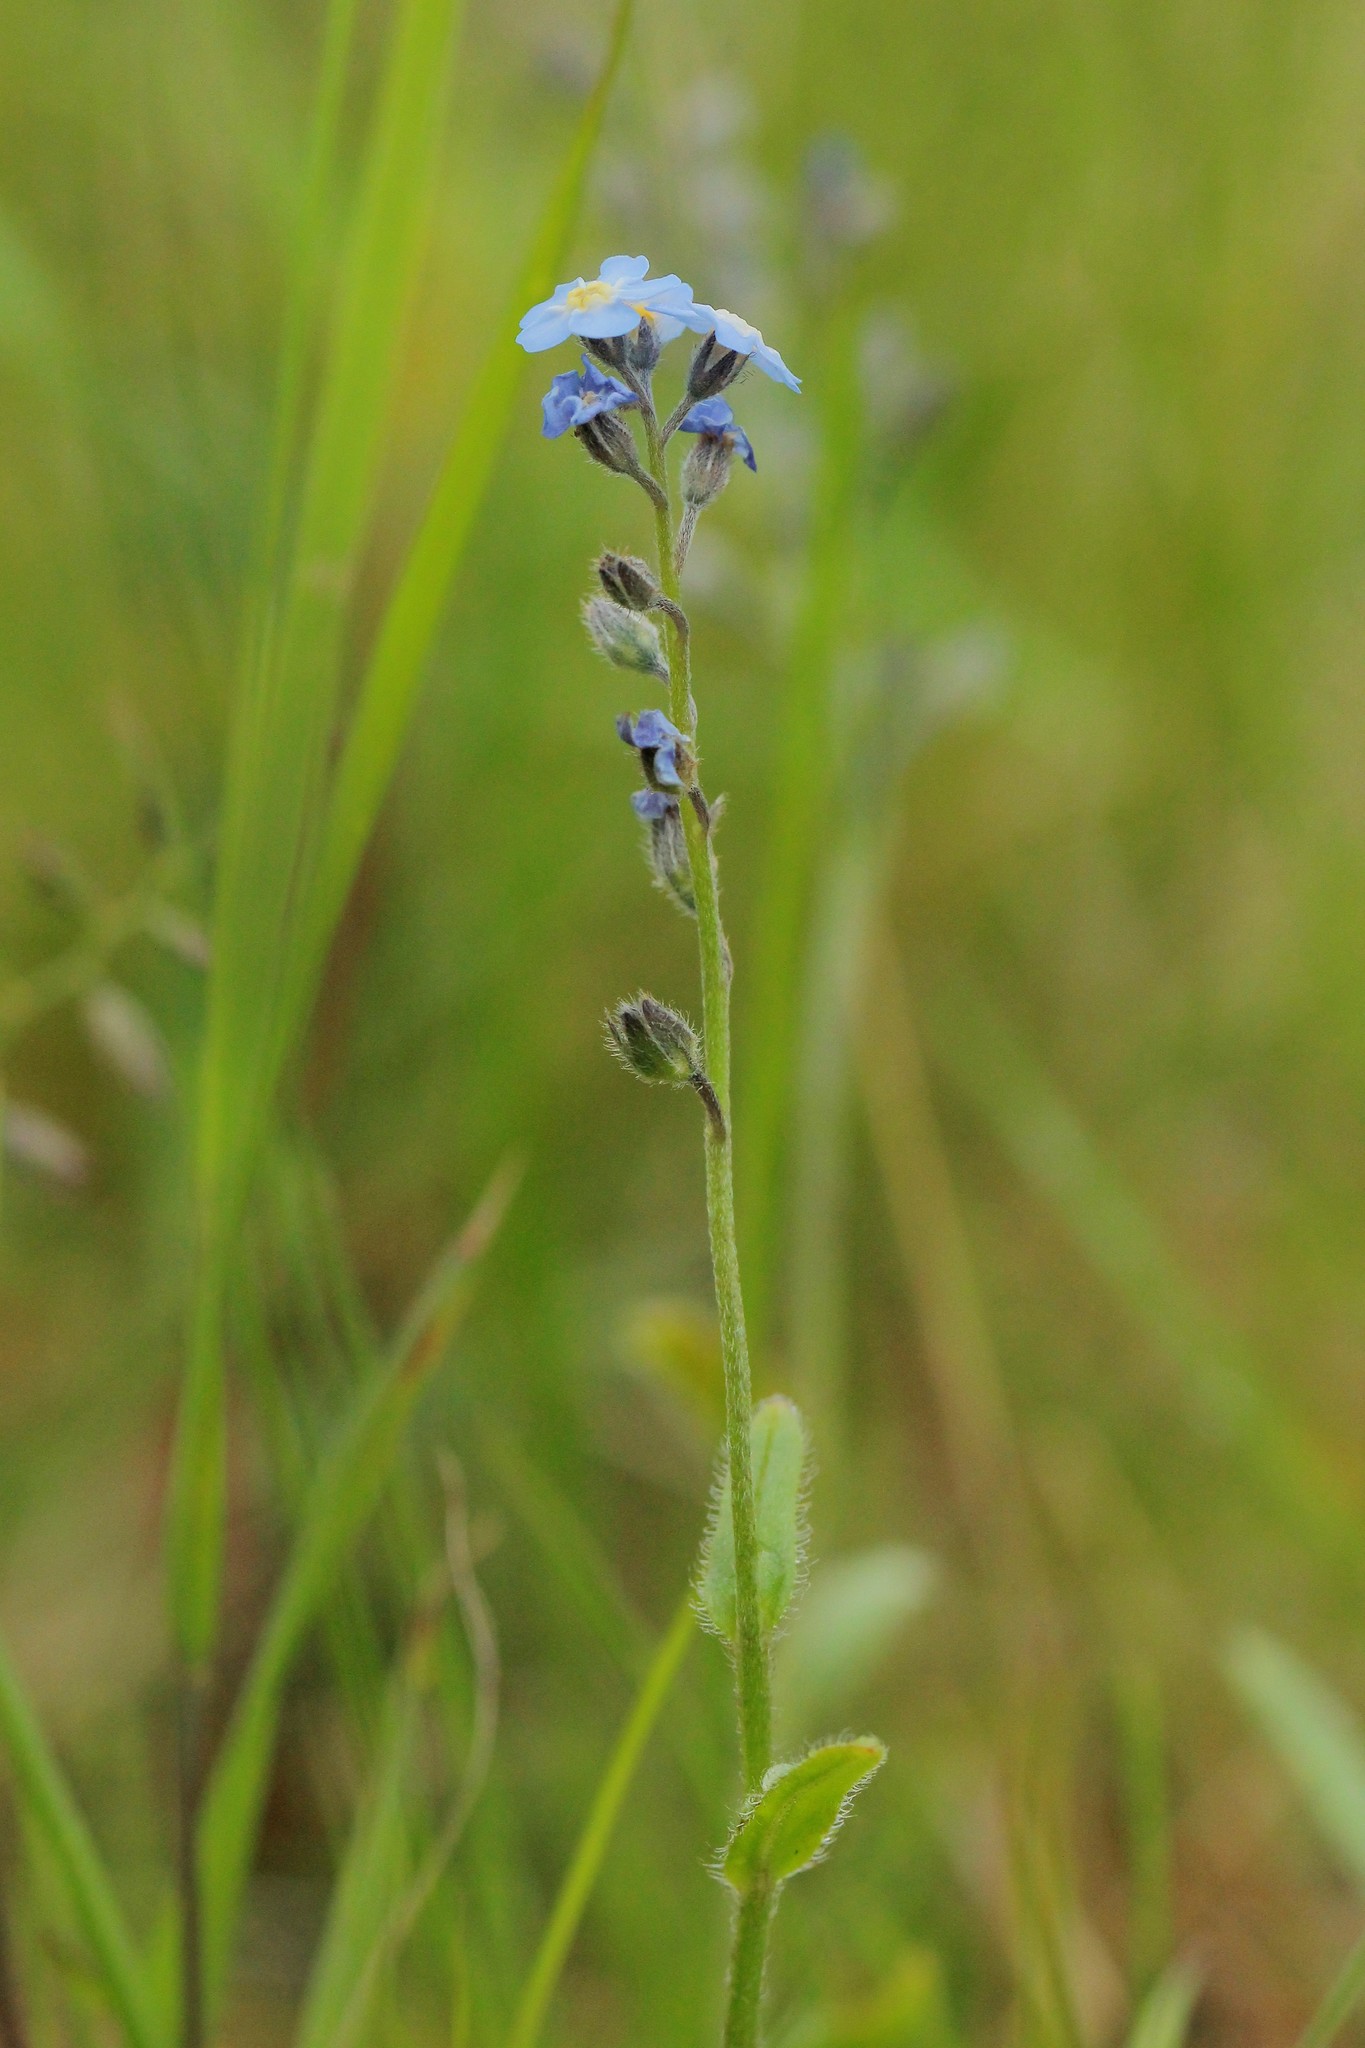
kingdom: Plantae
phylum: Tracheophyta
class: Magnoliopsida
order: Boraginales
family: Boraginaceae
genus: Myosotis
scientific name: Myosotis asiatica
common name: Asian forget-me-not
